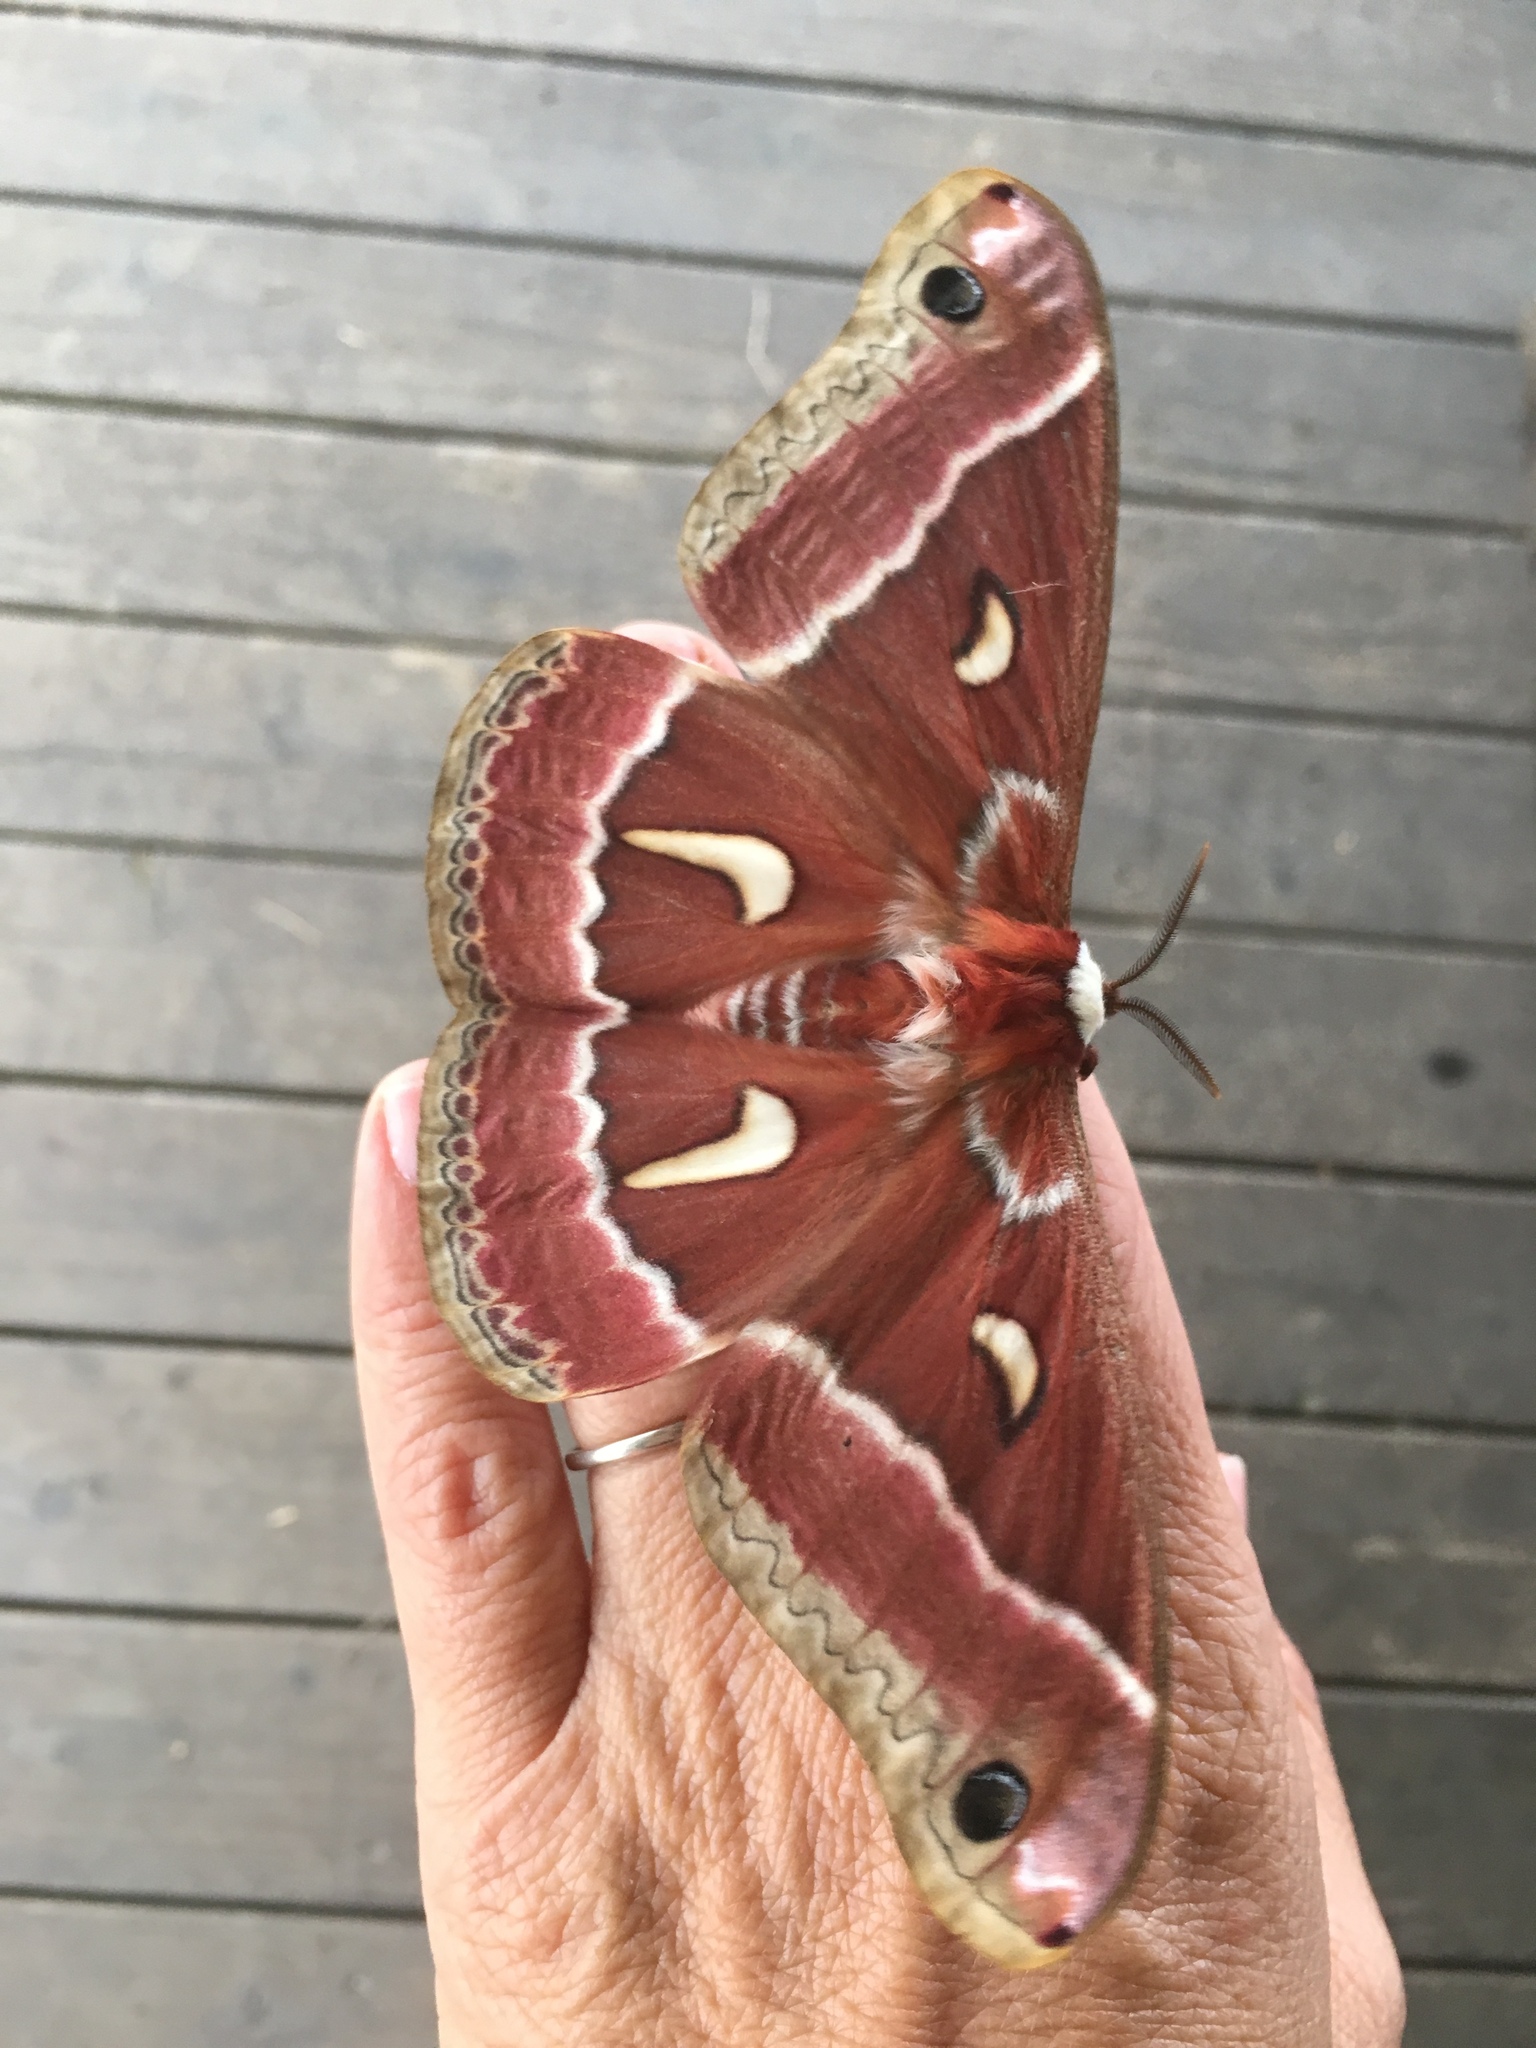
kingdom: Animalia
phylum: Arthropoda
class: Insecta
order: Lepidoptera
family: Saturniidae
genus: Hyalophora
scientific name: Hyalophora euryalus
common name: Ceanothus silkmoth
